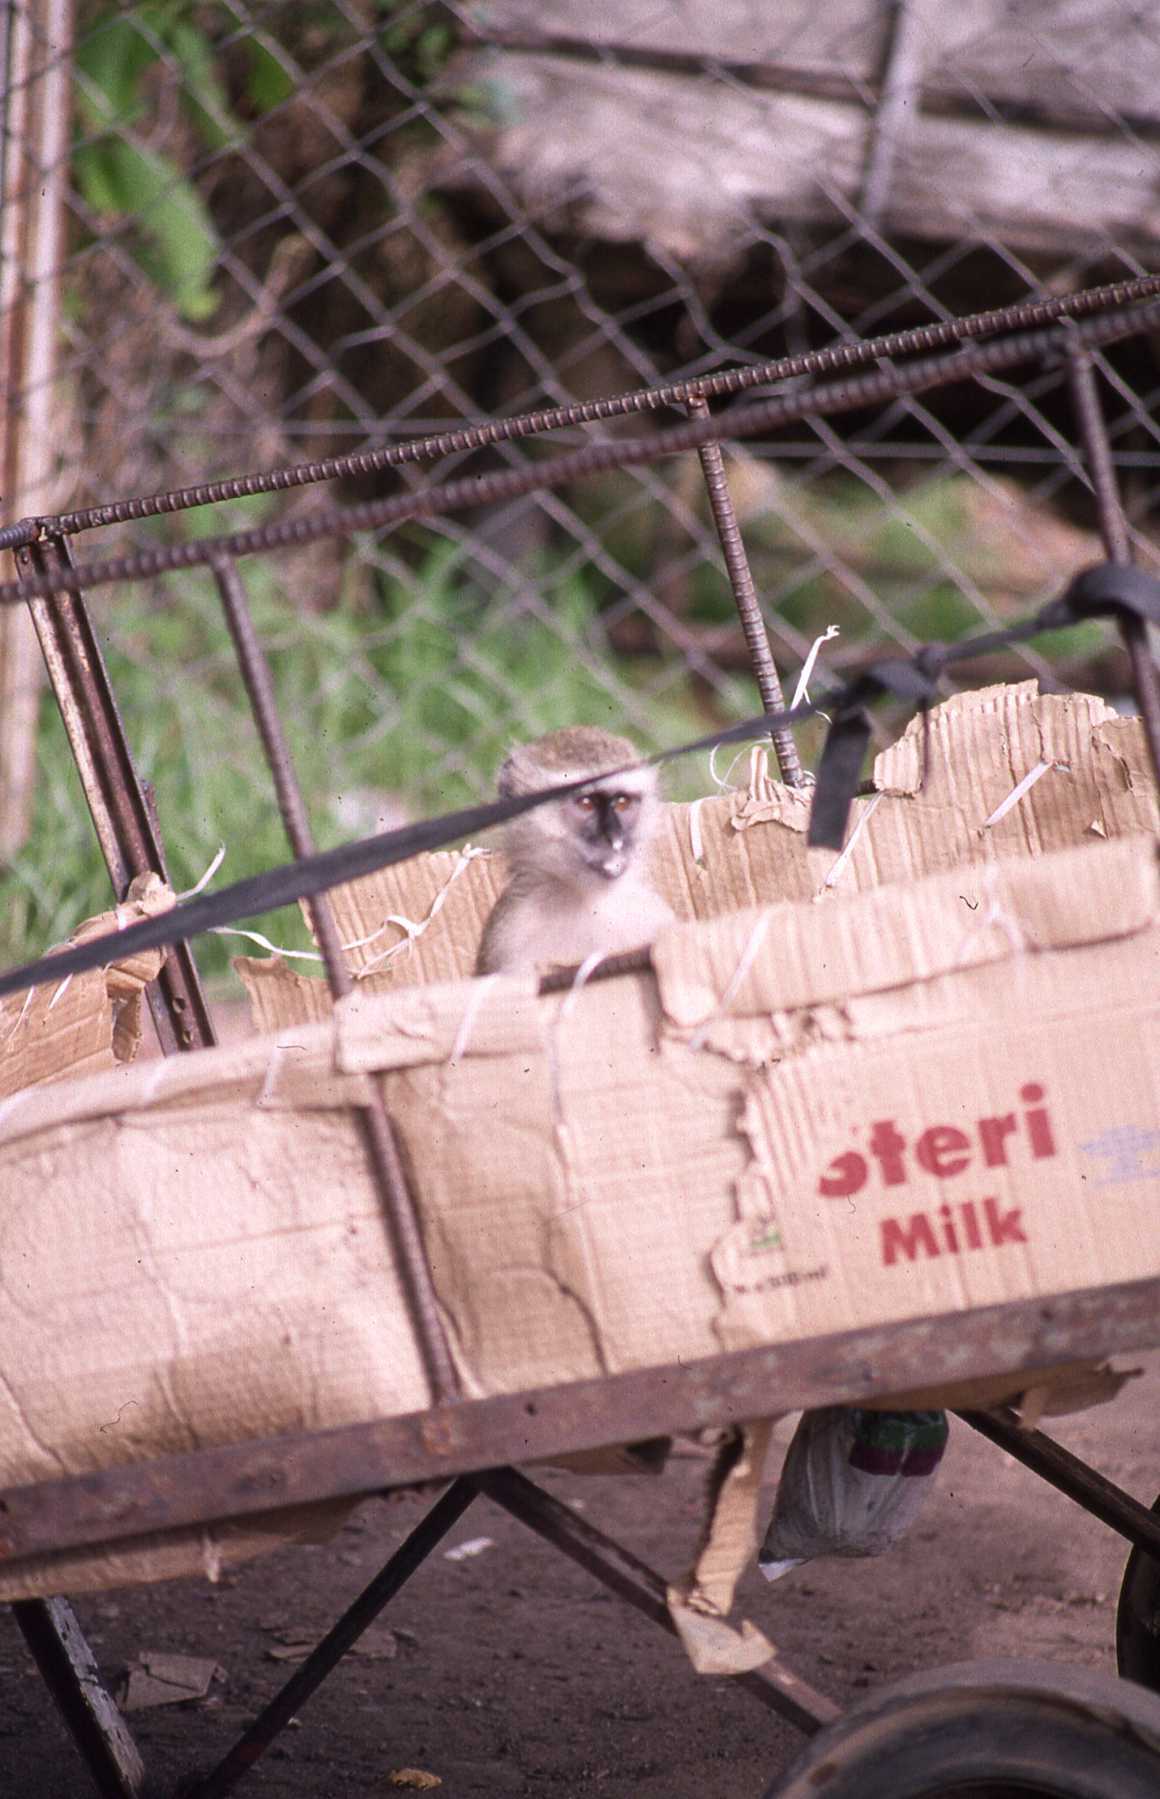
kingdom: Animalia
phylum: Chordata
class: Mammalia
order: Primates
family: Cercopithecidae
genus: Chlorocebus
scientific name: Chlorocebus pygerythrus
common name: Vervet monkey
